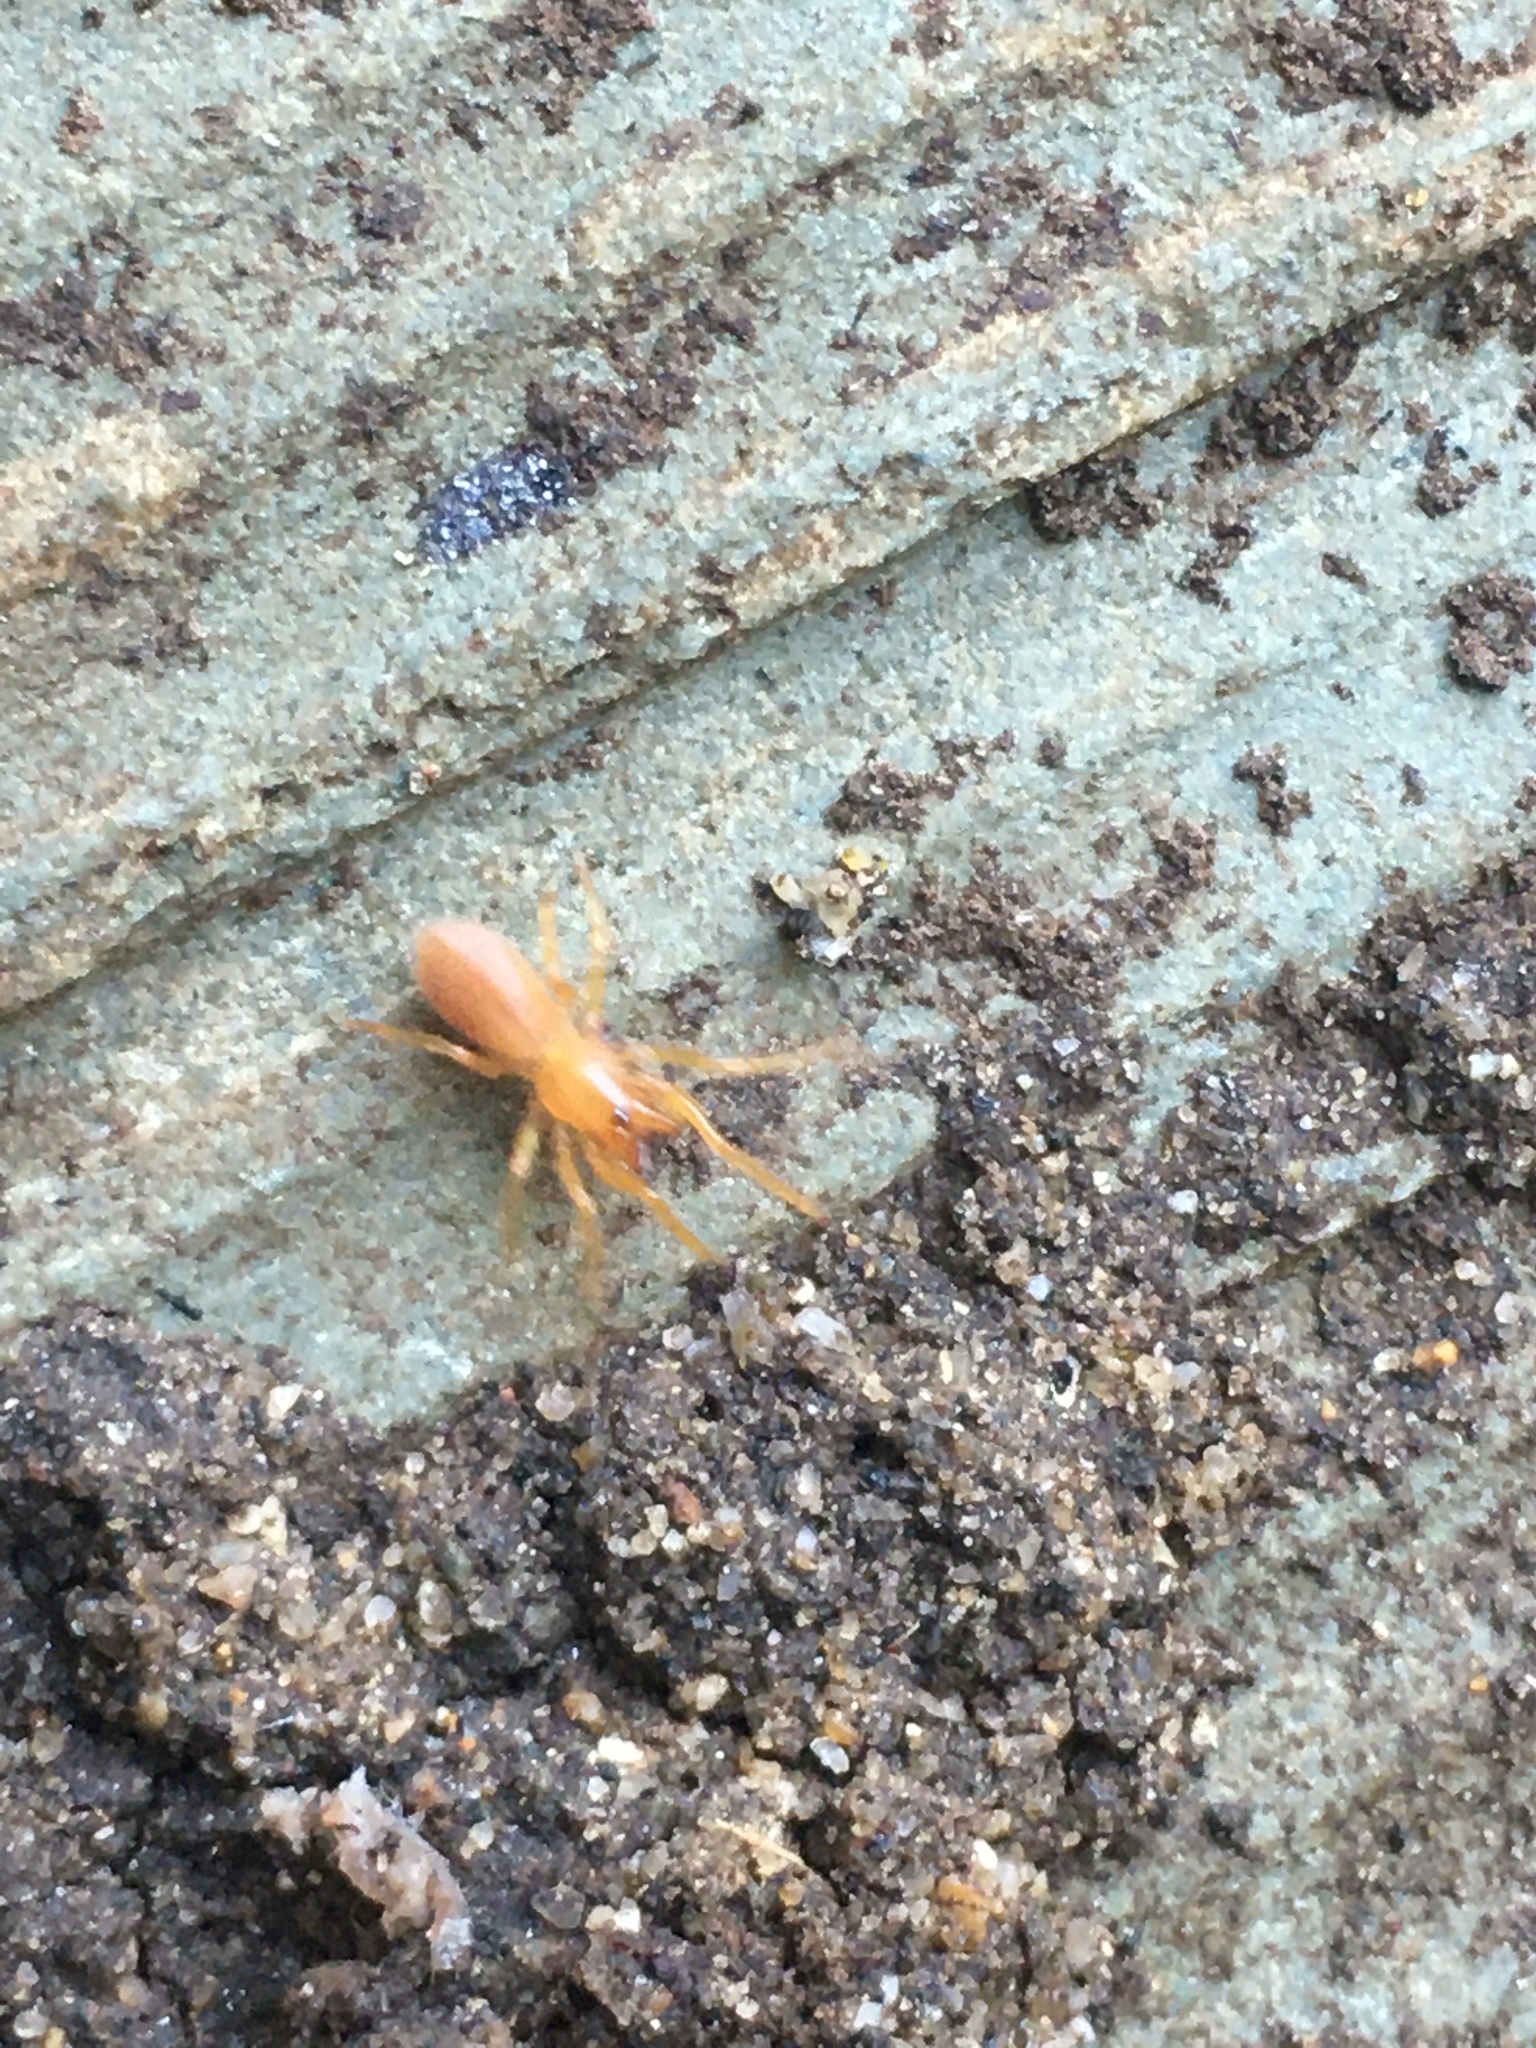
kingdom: Animalia
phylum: Arthropoda
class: Arachnida
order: Araneae
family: Dysderidae
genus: Dysdera
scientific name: Dysdera crocata
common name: Woodlouse spider
